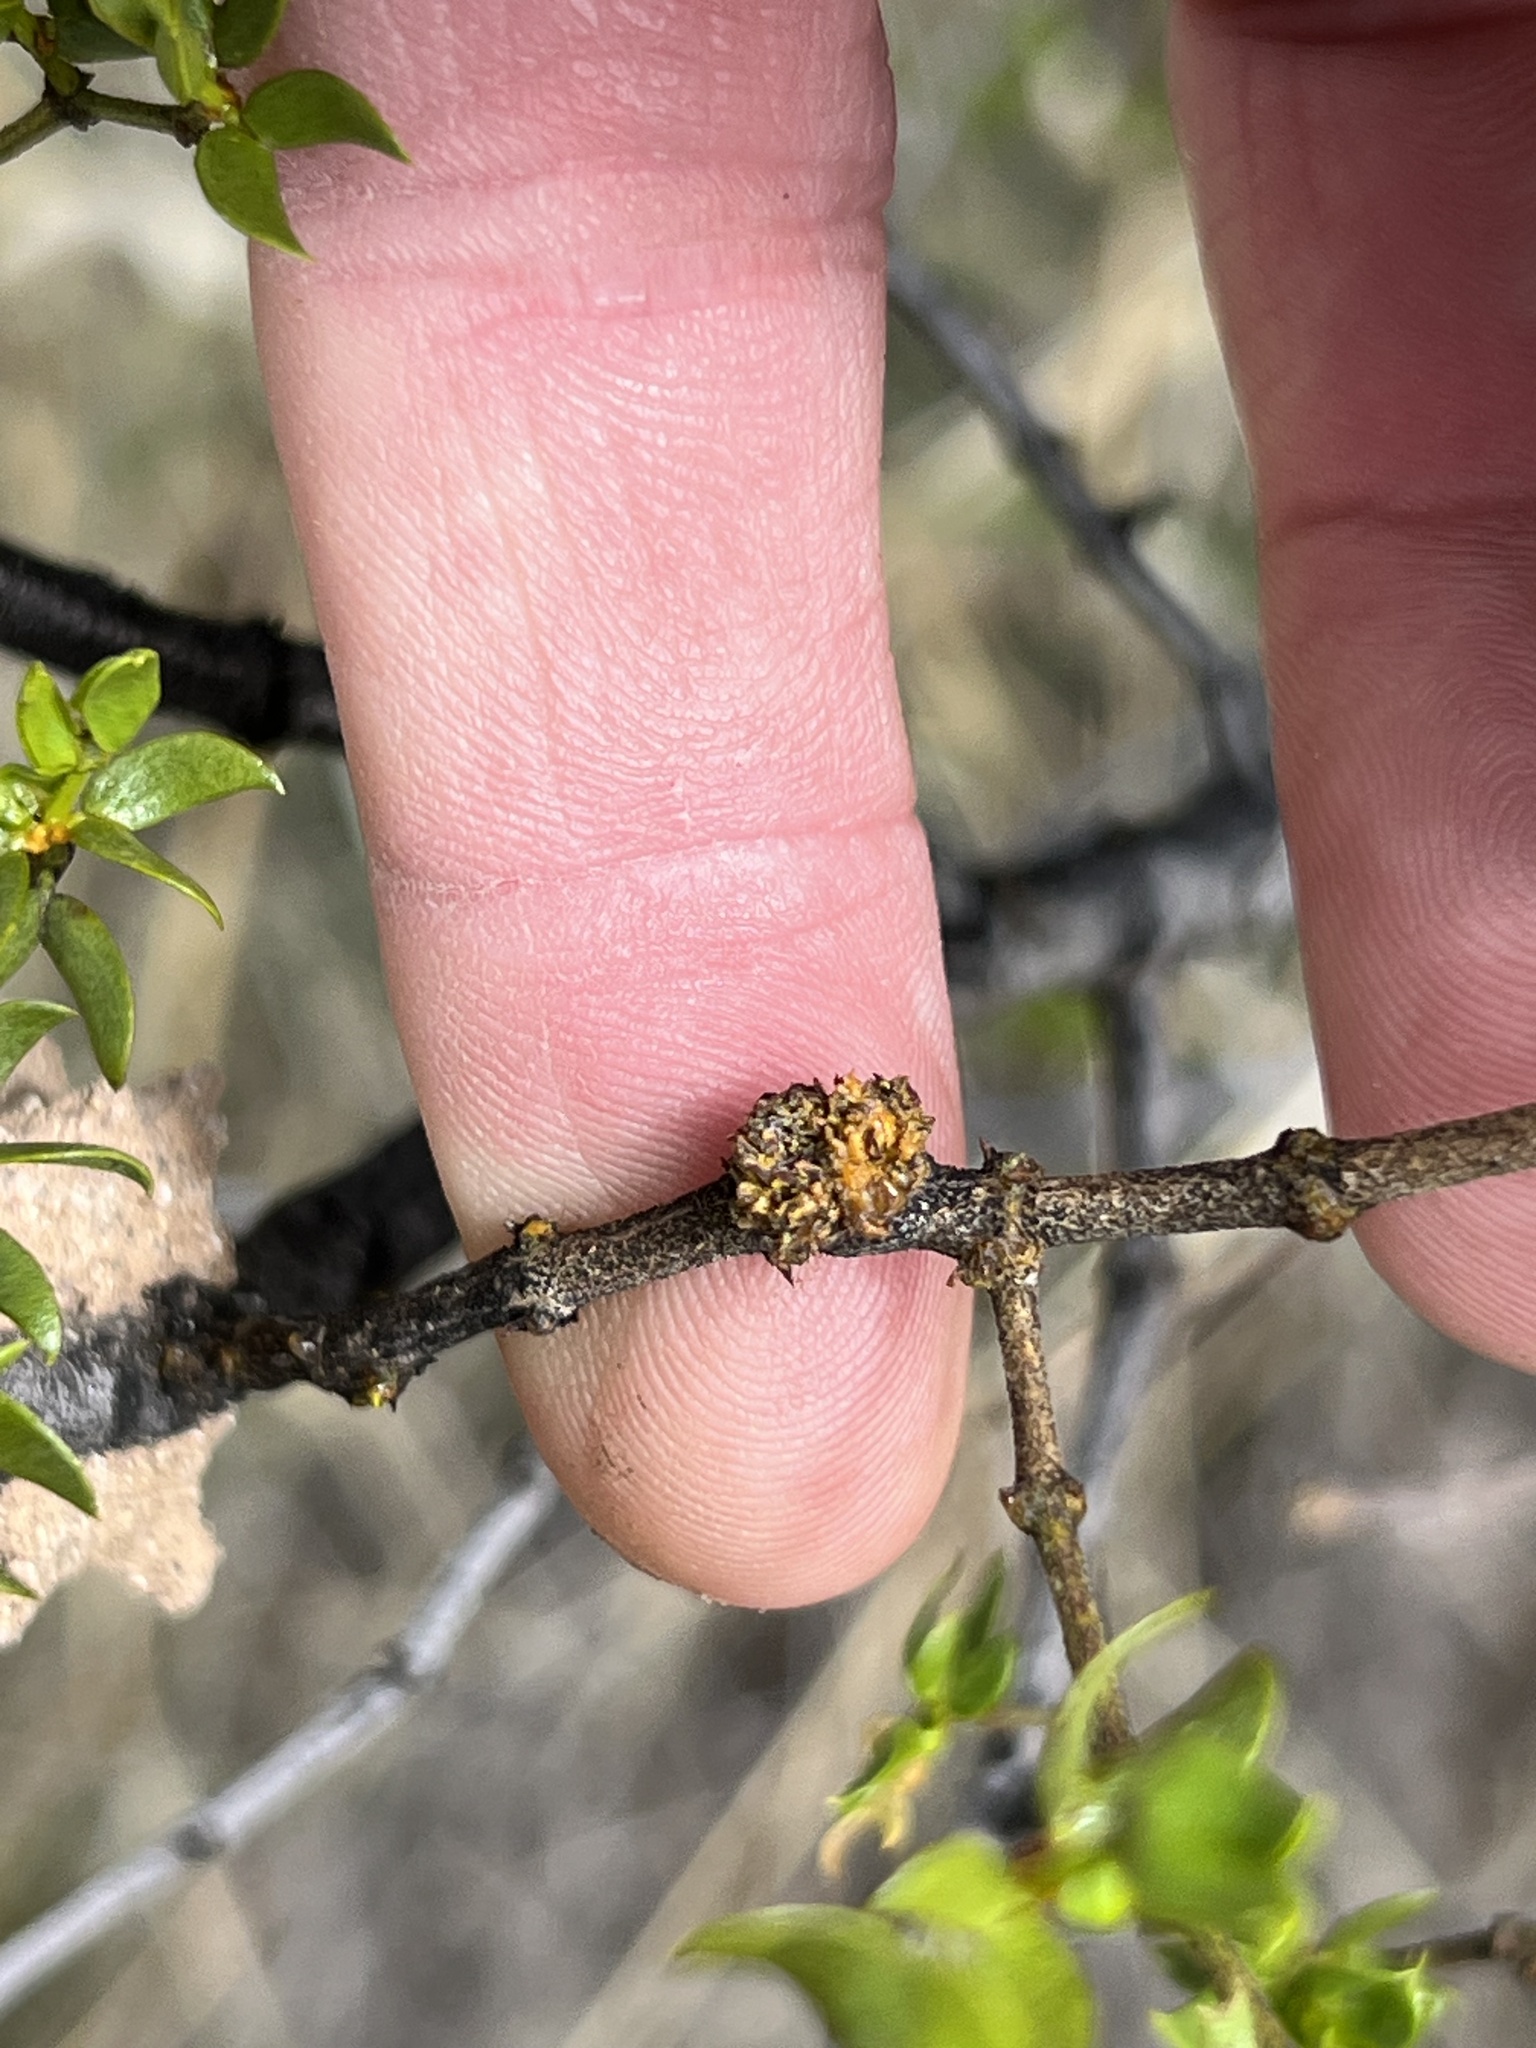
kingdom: Animalia
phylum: Arthropoda
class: Insecta
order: Diptera
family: Cecidomyiidae
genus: Asphondylia
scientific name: Asphondylia rosetta
